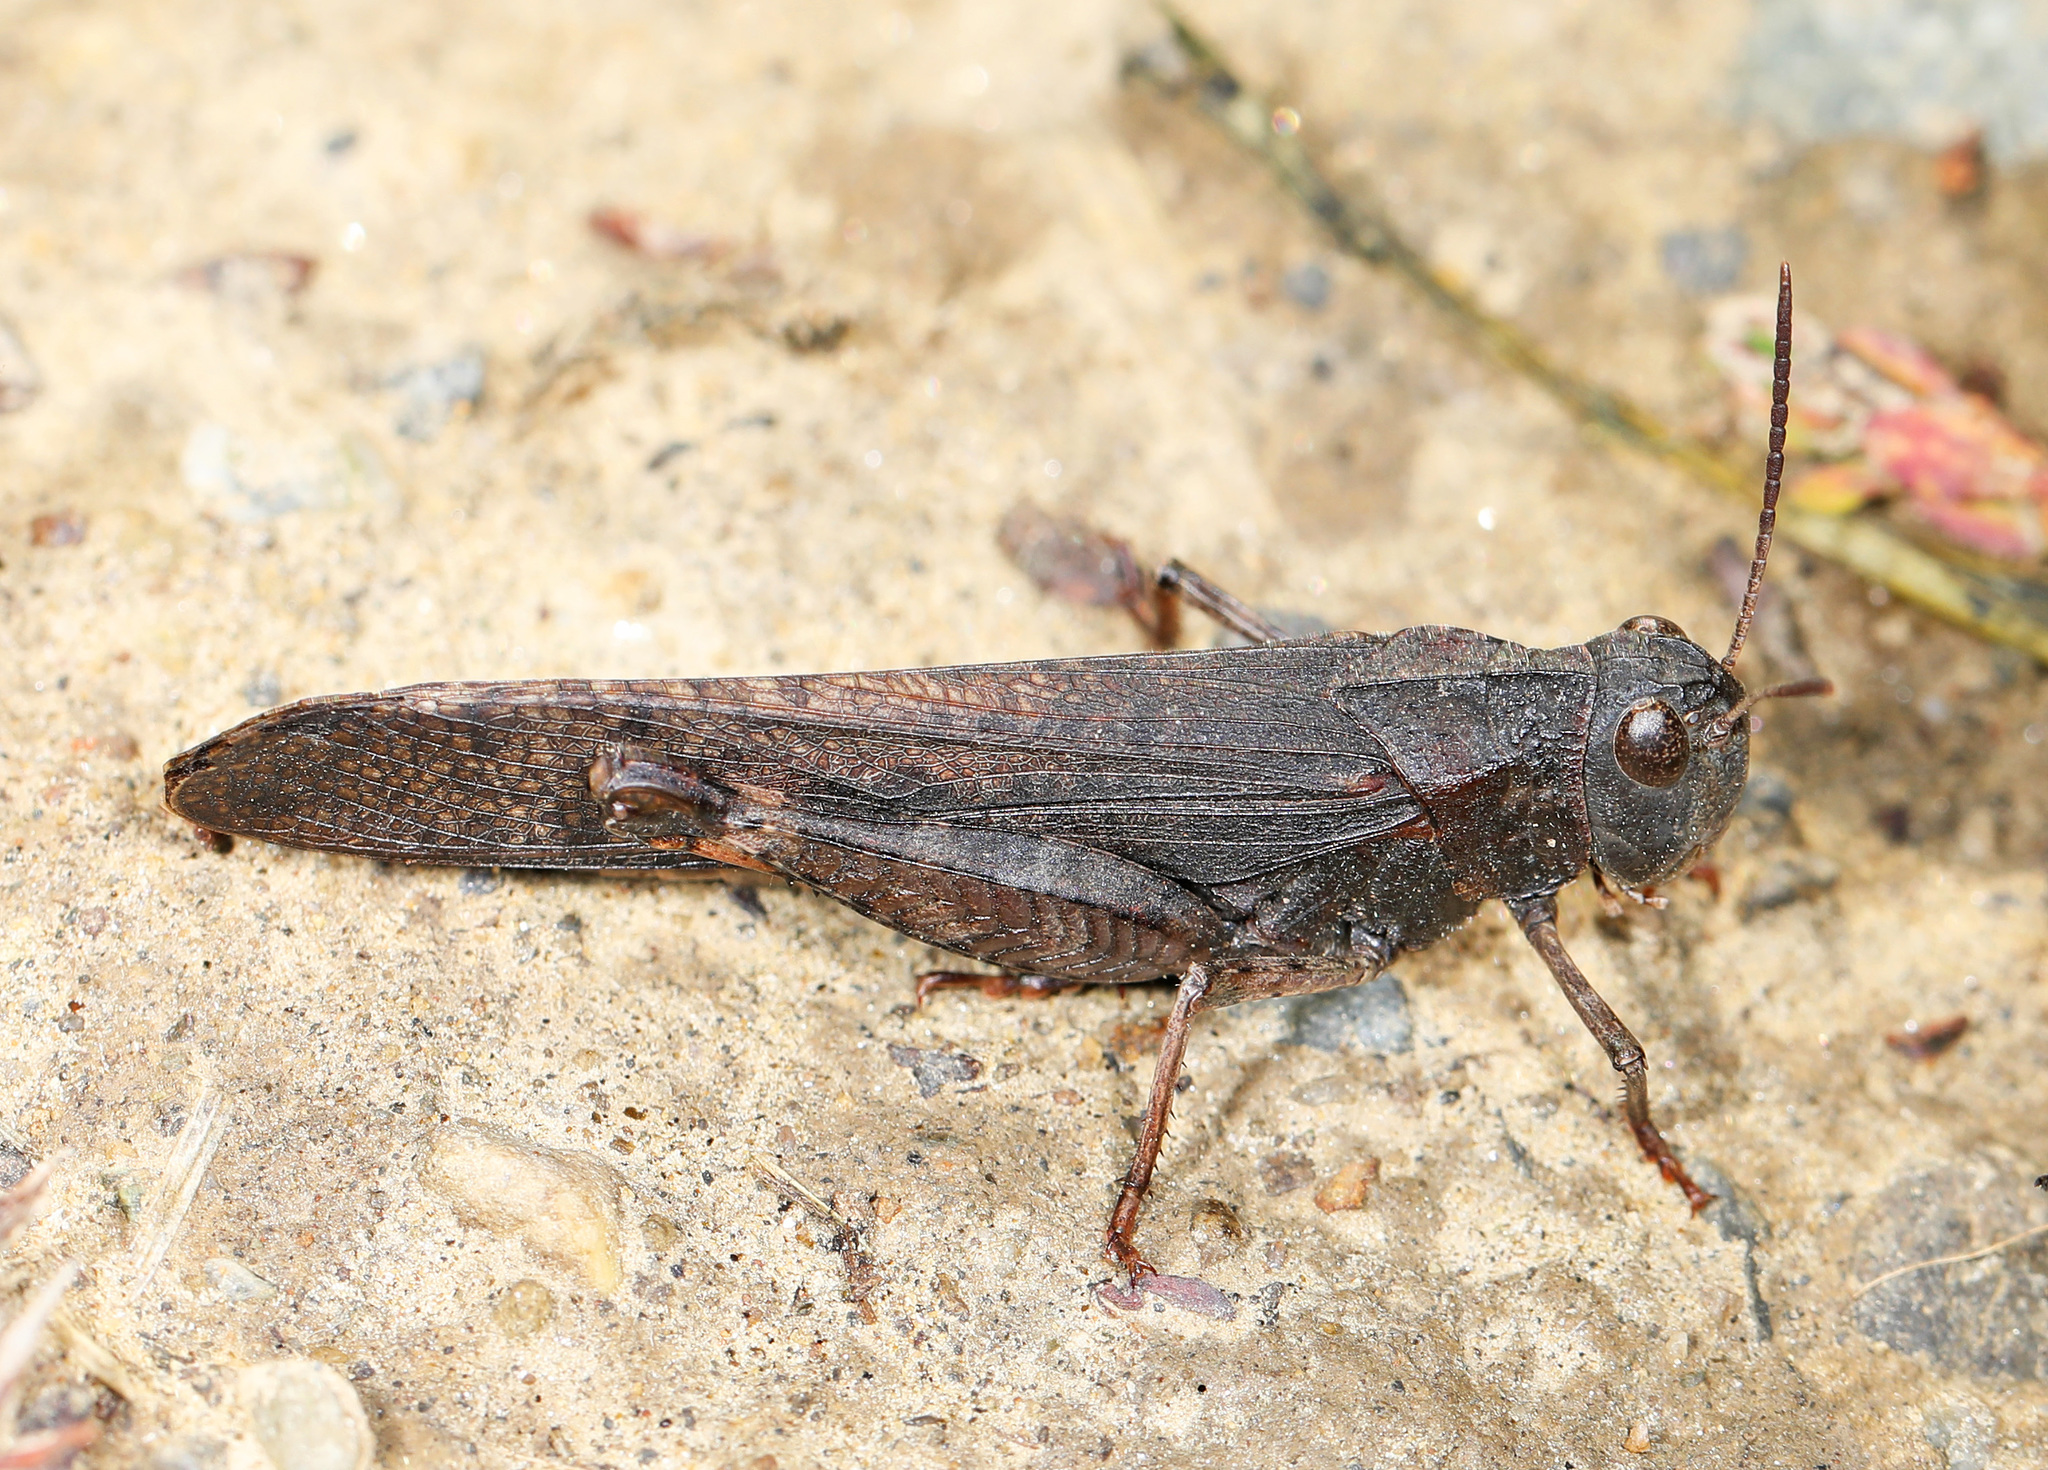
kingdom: Animalia
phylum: Arthropoda
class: Insecta
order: Orthoptera
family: Acrididae
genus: Arphia
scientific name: Arphia pseudo-nietana
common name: Red-winged grasshopper
